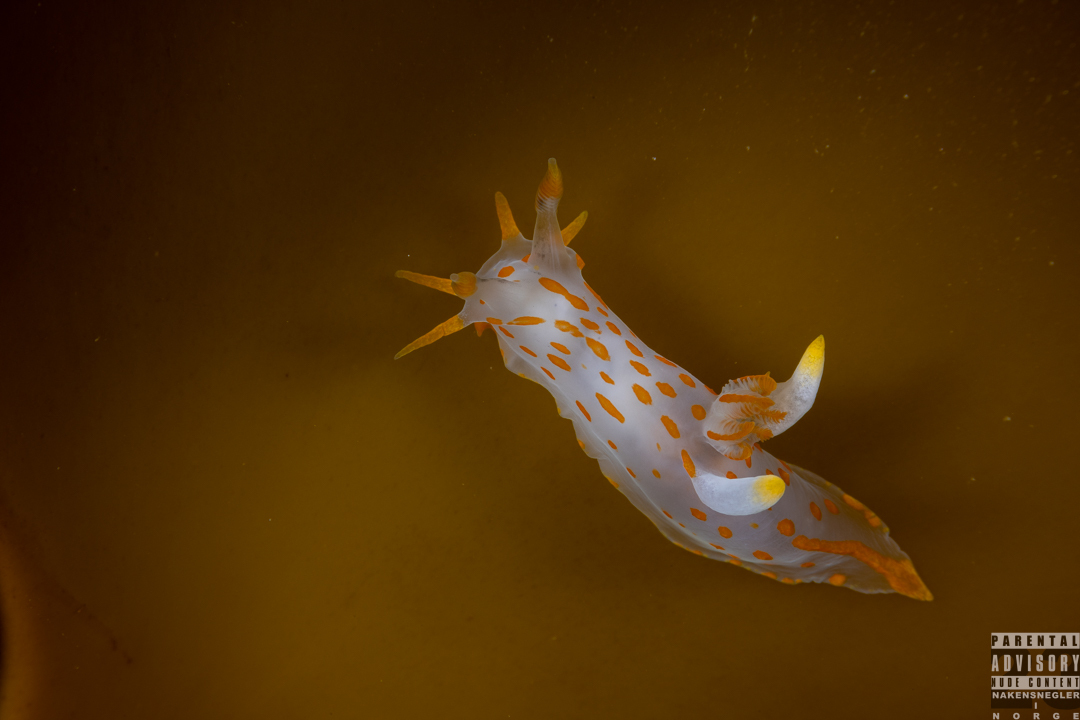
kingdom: Animalia
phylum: Mollusca
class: Gastropoda
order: Nudibranchia
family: Polyceridae
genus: Polycera
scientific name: Polycera quadrilineata
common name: Four-striped polycera
